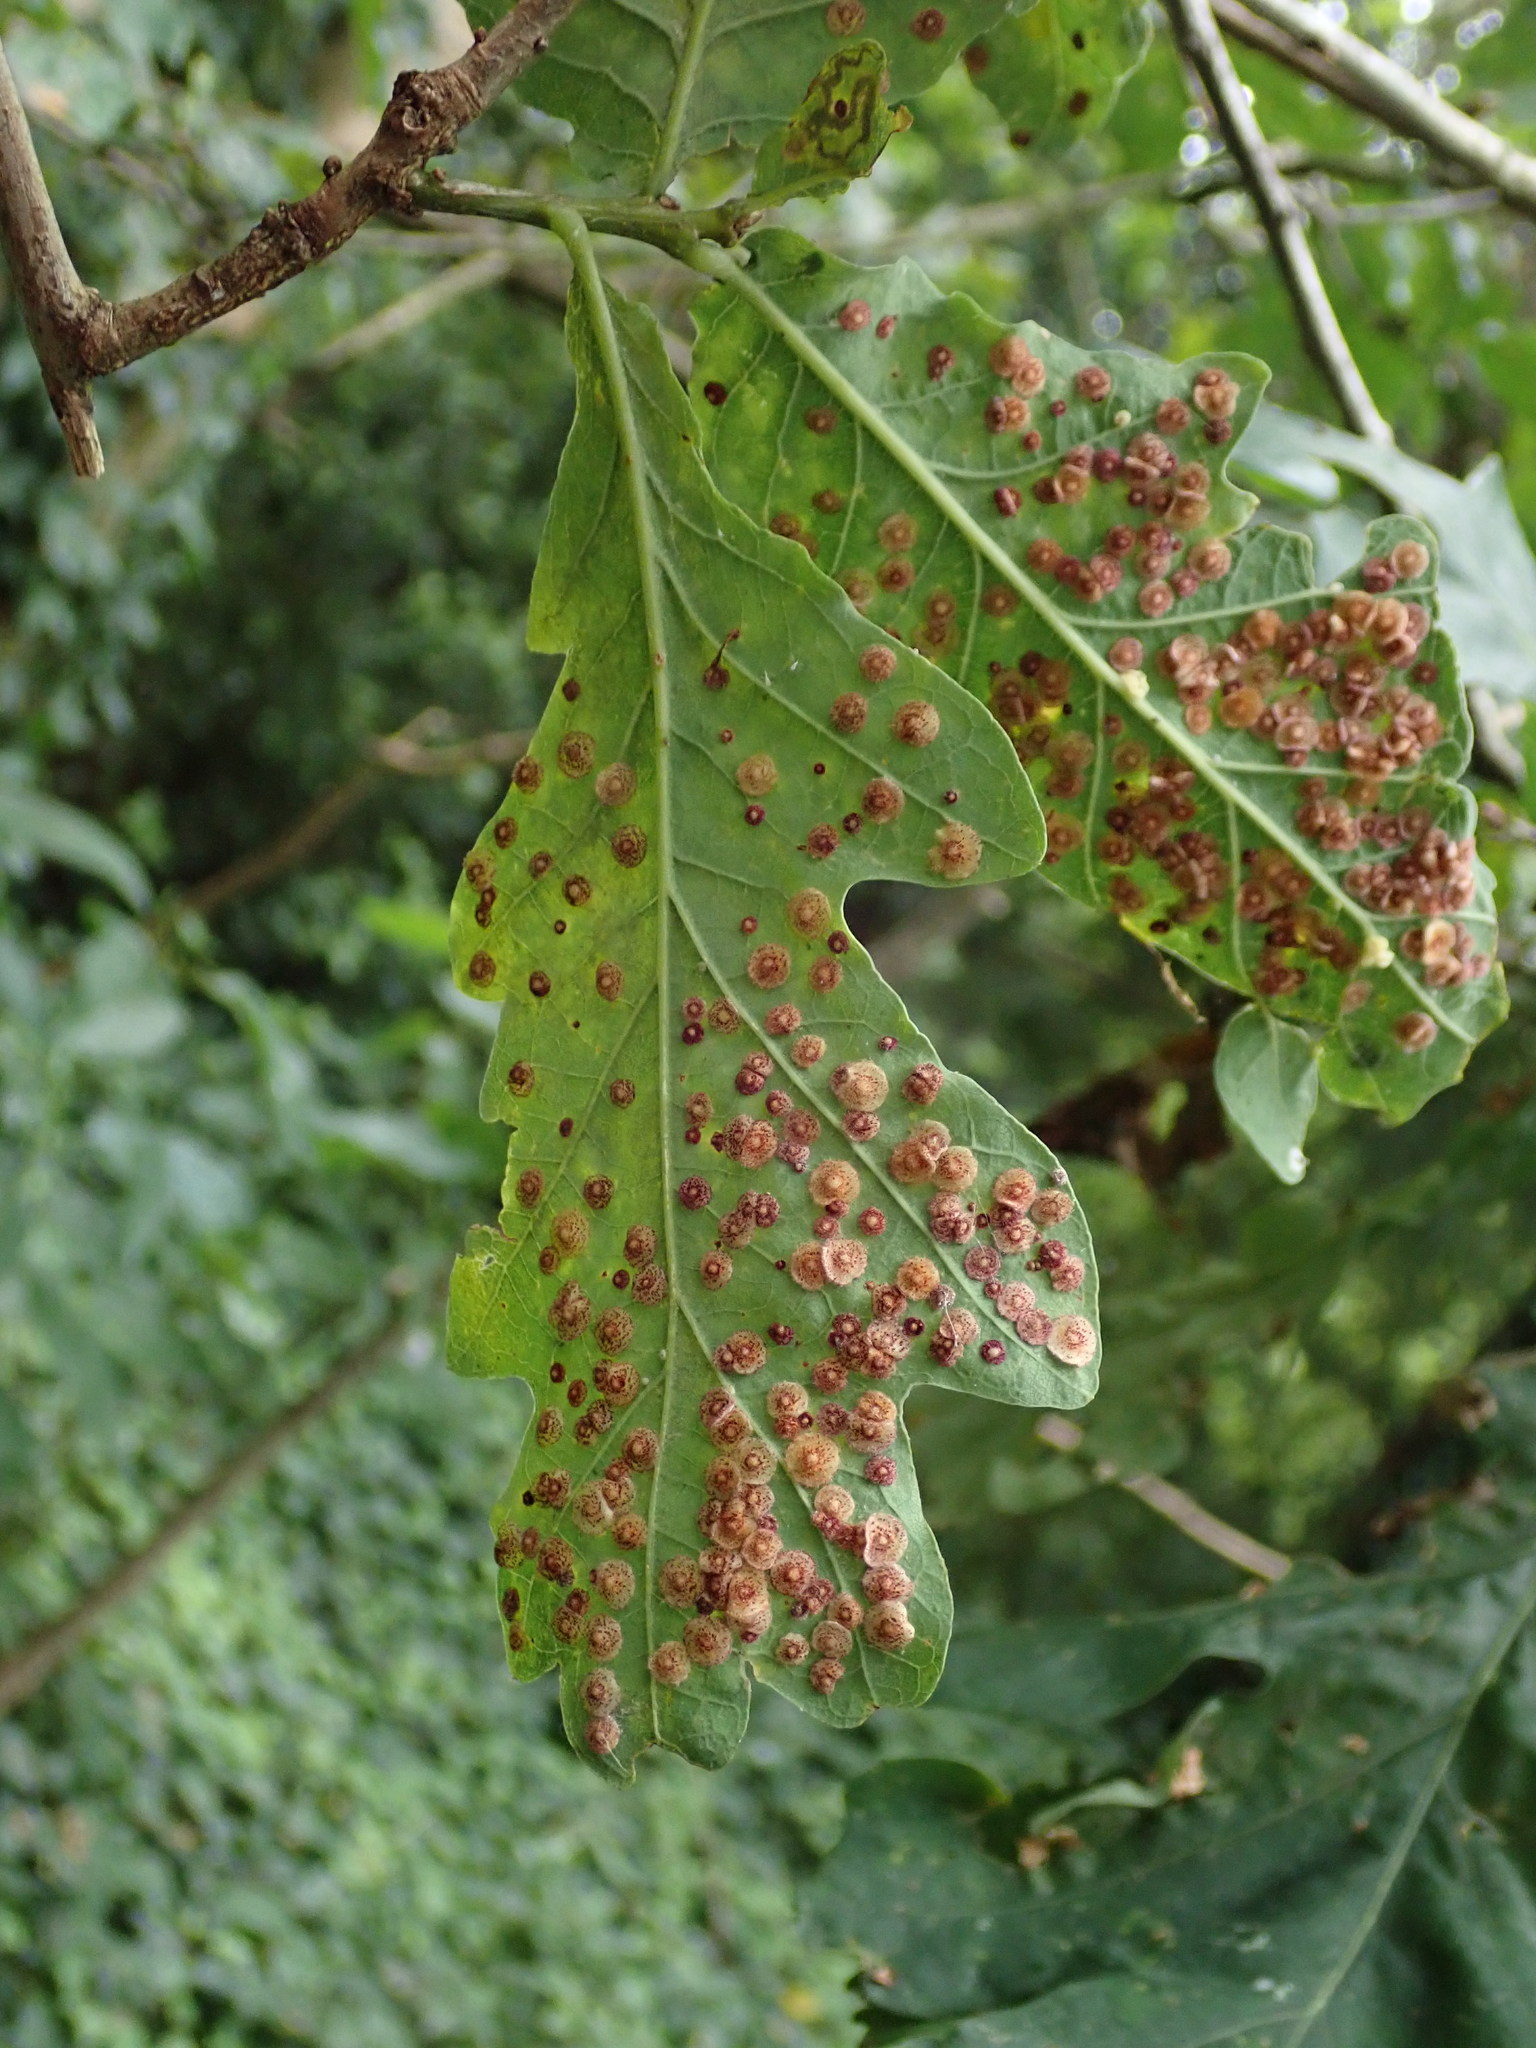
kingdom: Animalia
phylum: Arthropoda
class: Insecta
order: Hymenoptera
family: Cynipidae
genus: Neuroterus
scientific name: Neuroterus quercusbaccarum
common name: Common spangle gall
